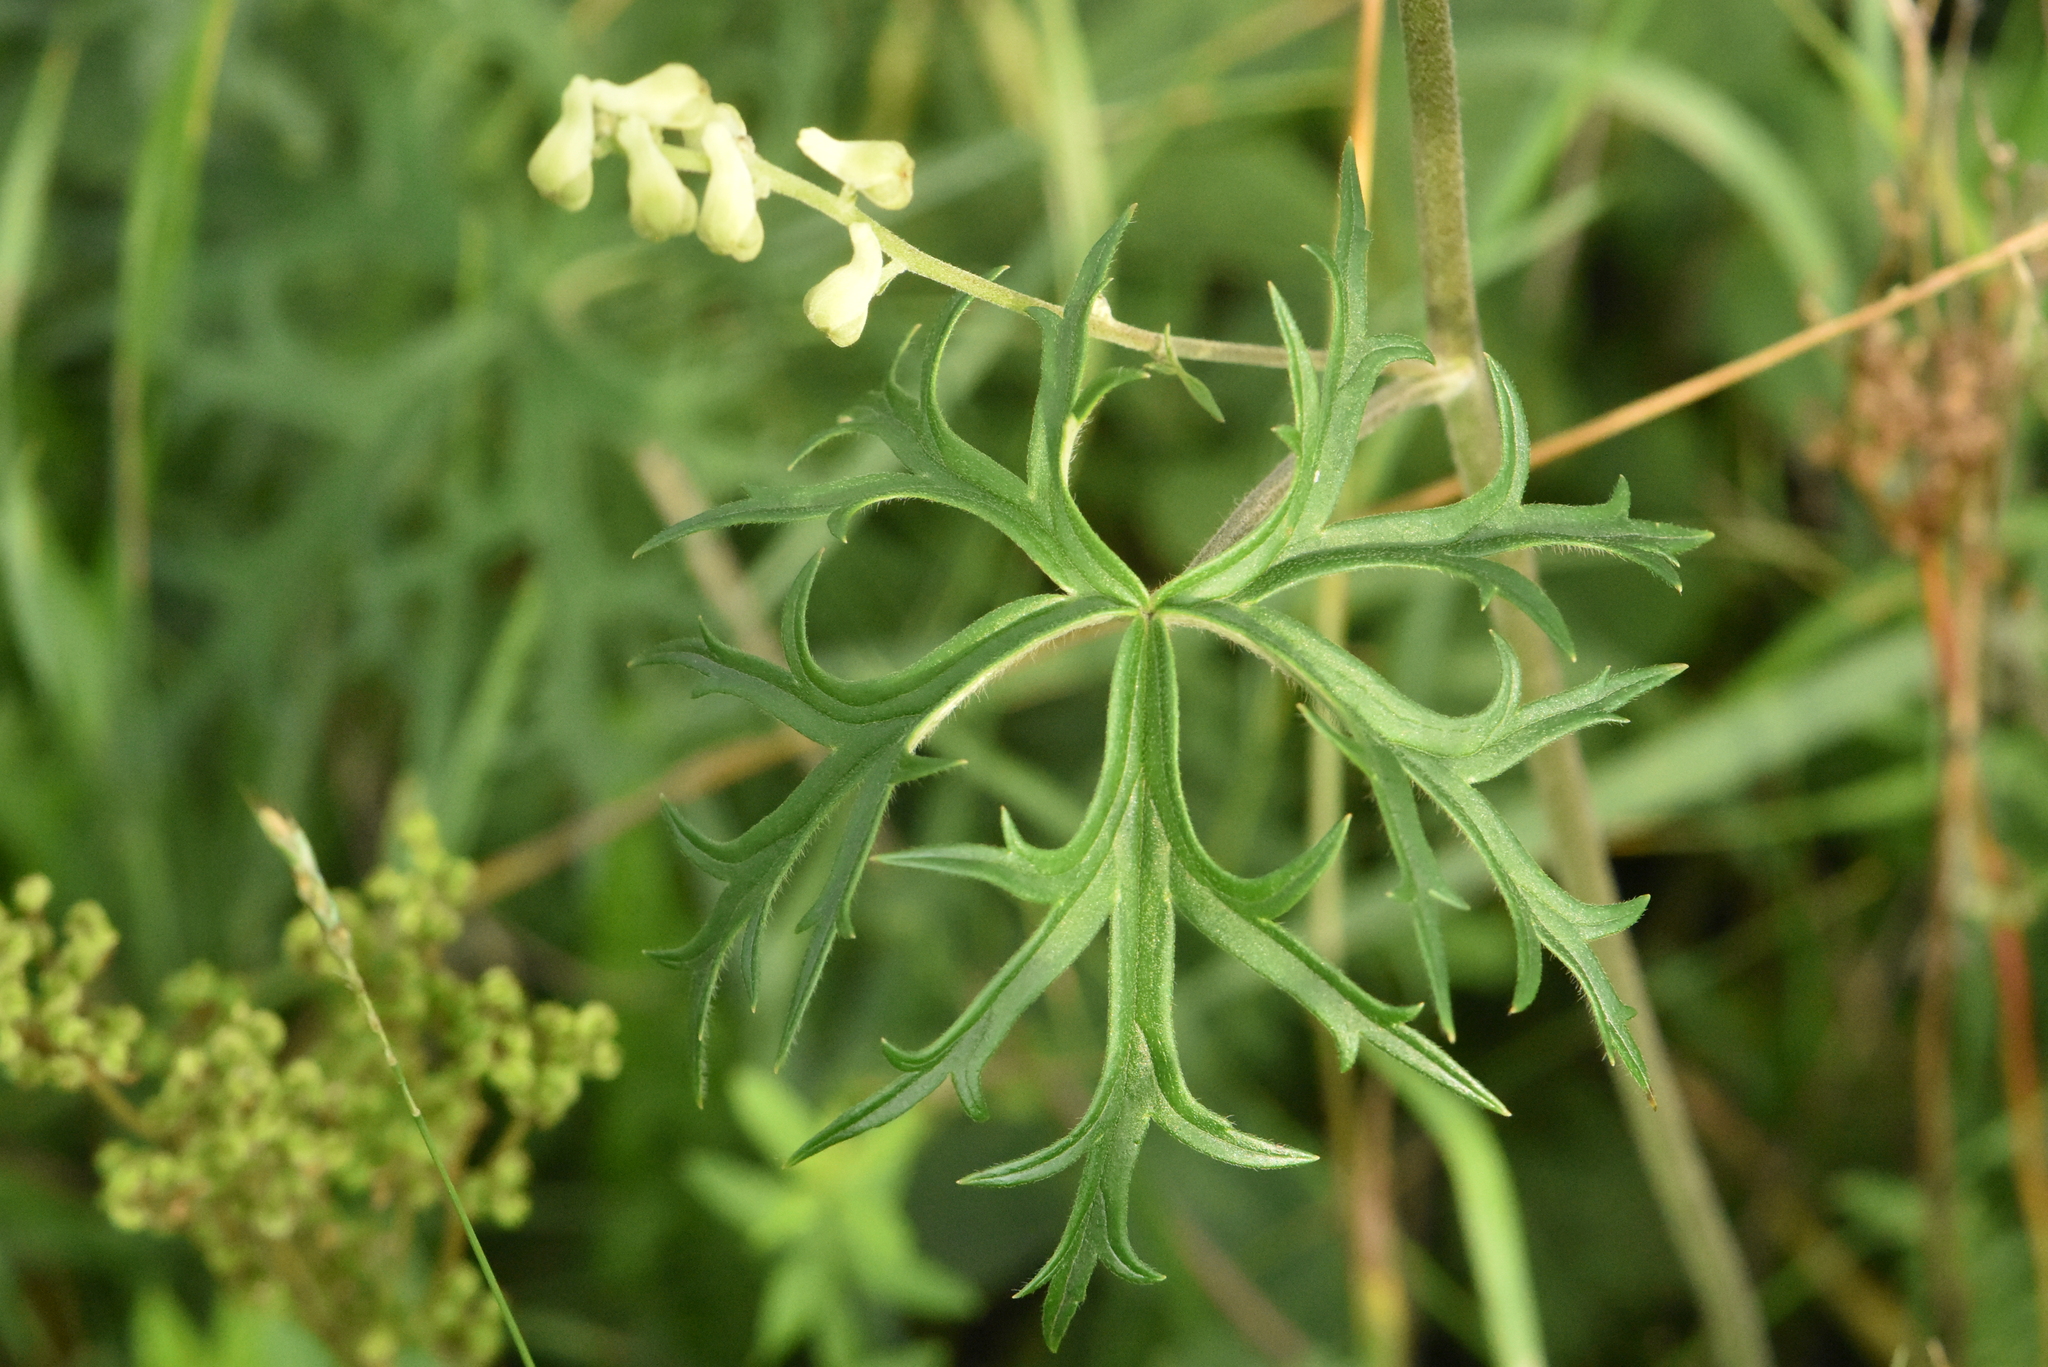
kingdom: Plantae
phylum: Tracheophyta
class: Magnoliopsida
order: Ranunculales
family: Ranunculaceae
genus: Aconitum
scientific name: Aconitum barbatum
